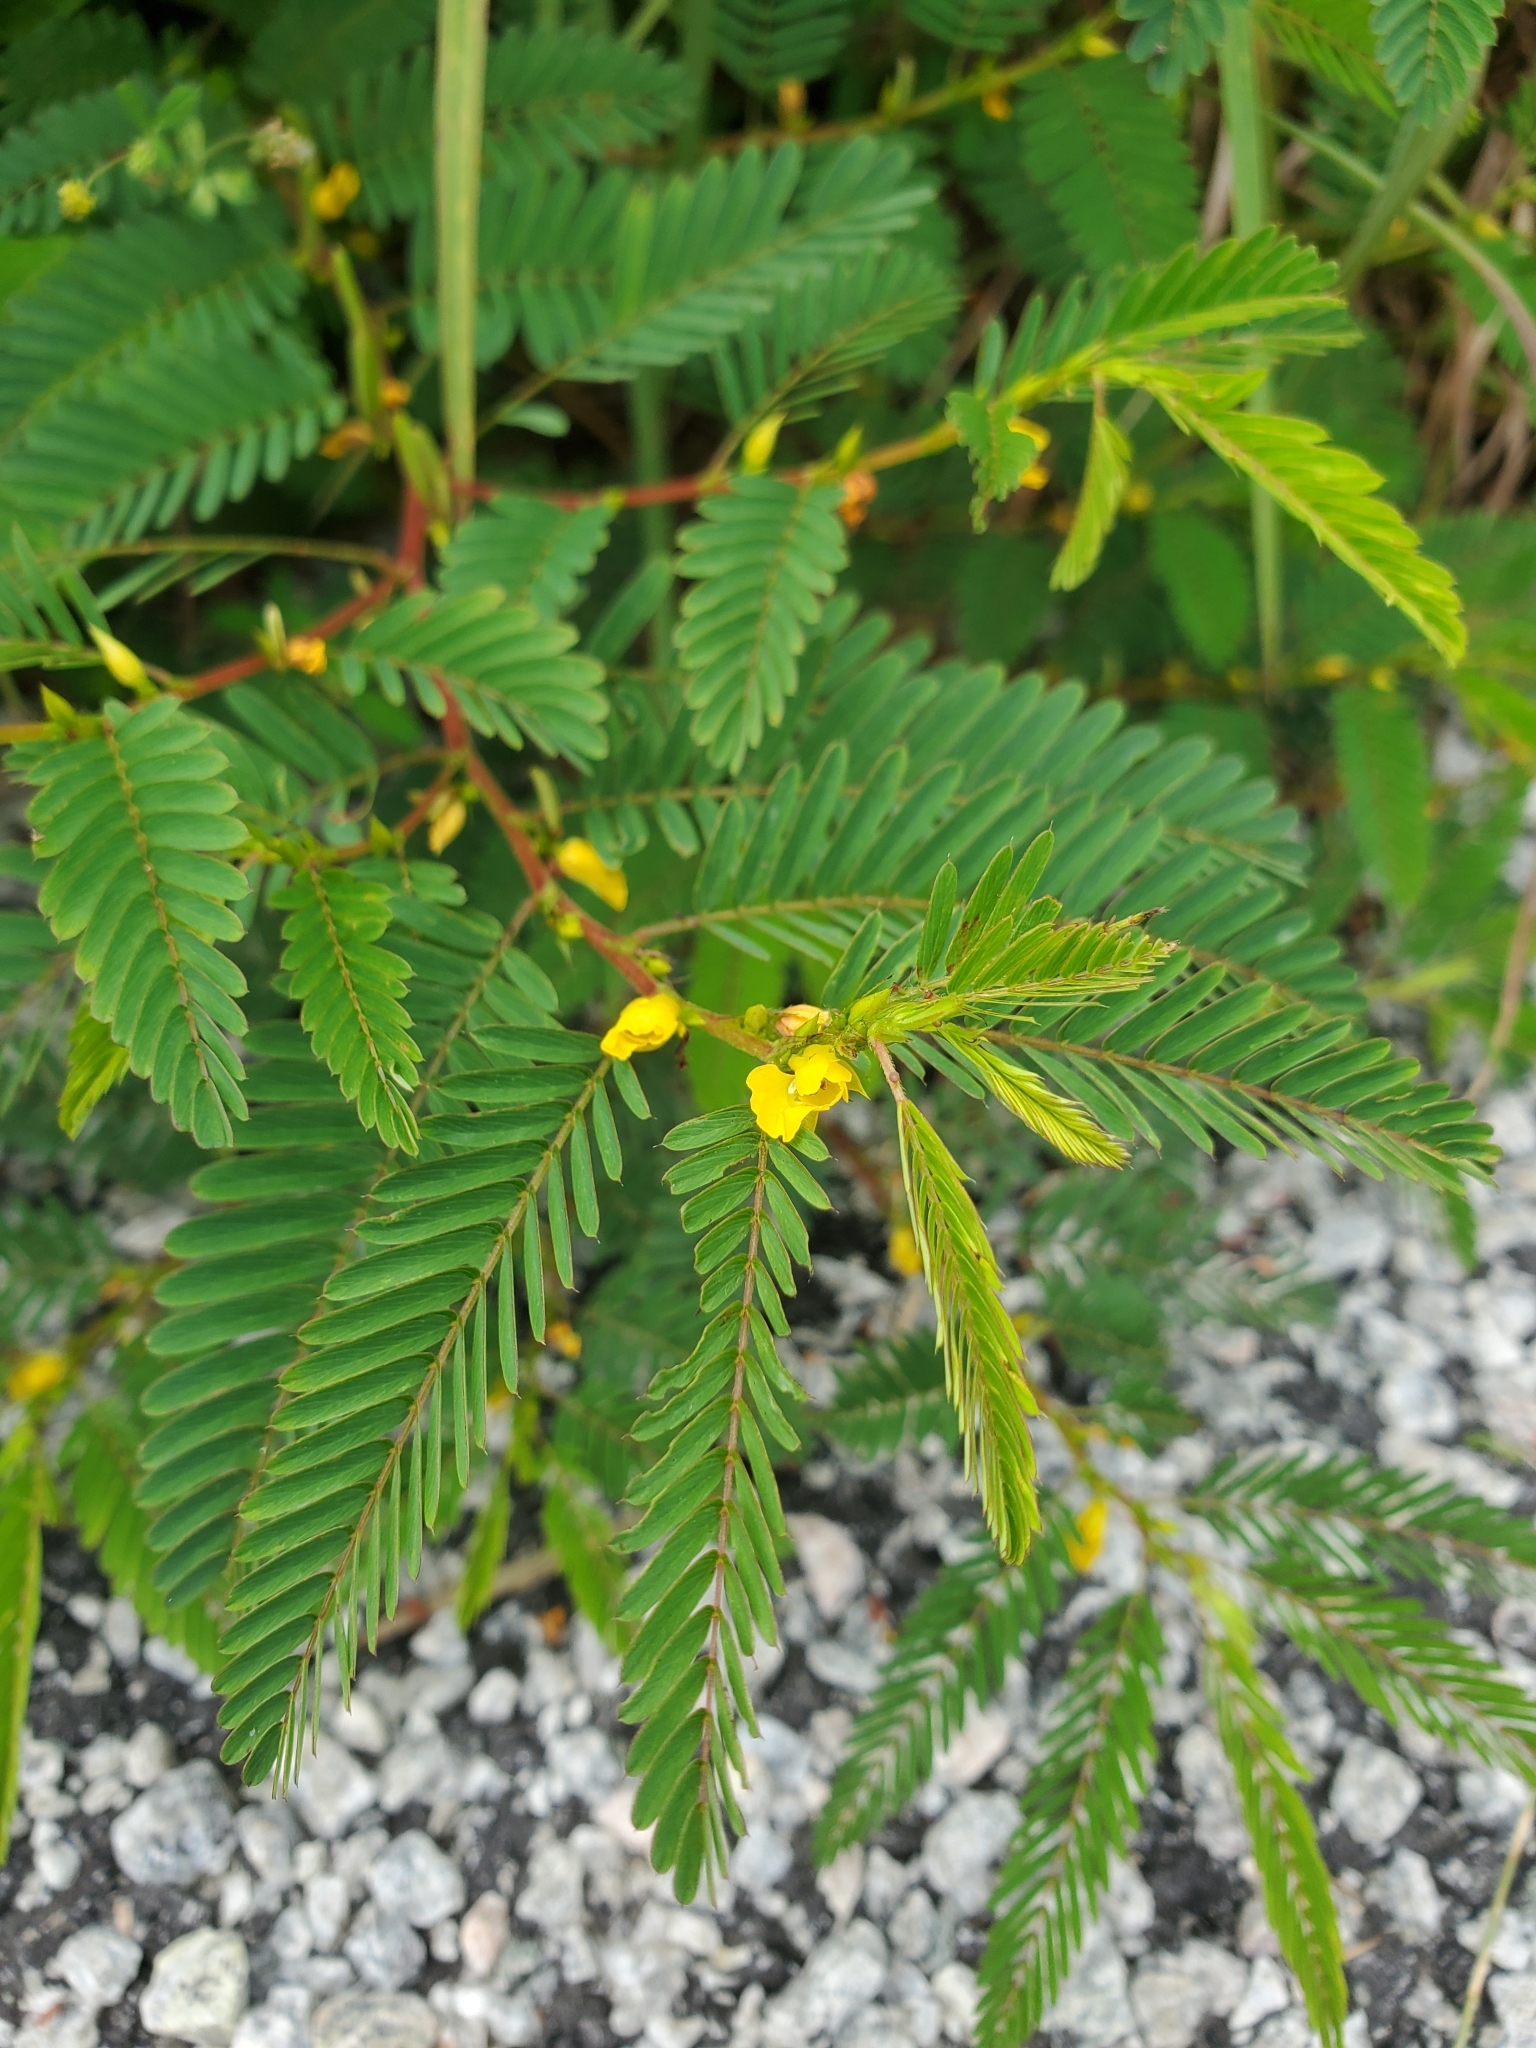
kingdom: Plantae
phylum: Tracheophyta
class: Magnoliopsida
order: Fabales
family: Fabaceae
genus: Chamaecrista
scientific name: Chamaecrista nictitans
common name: Sensitive cassia
